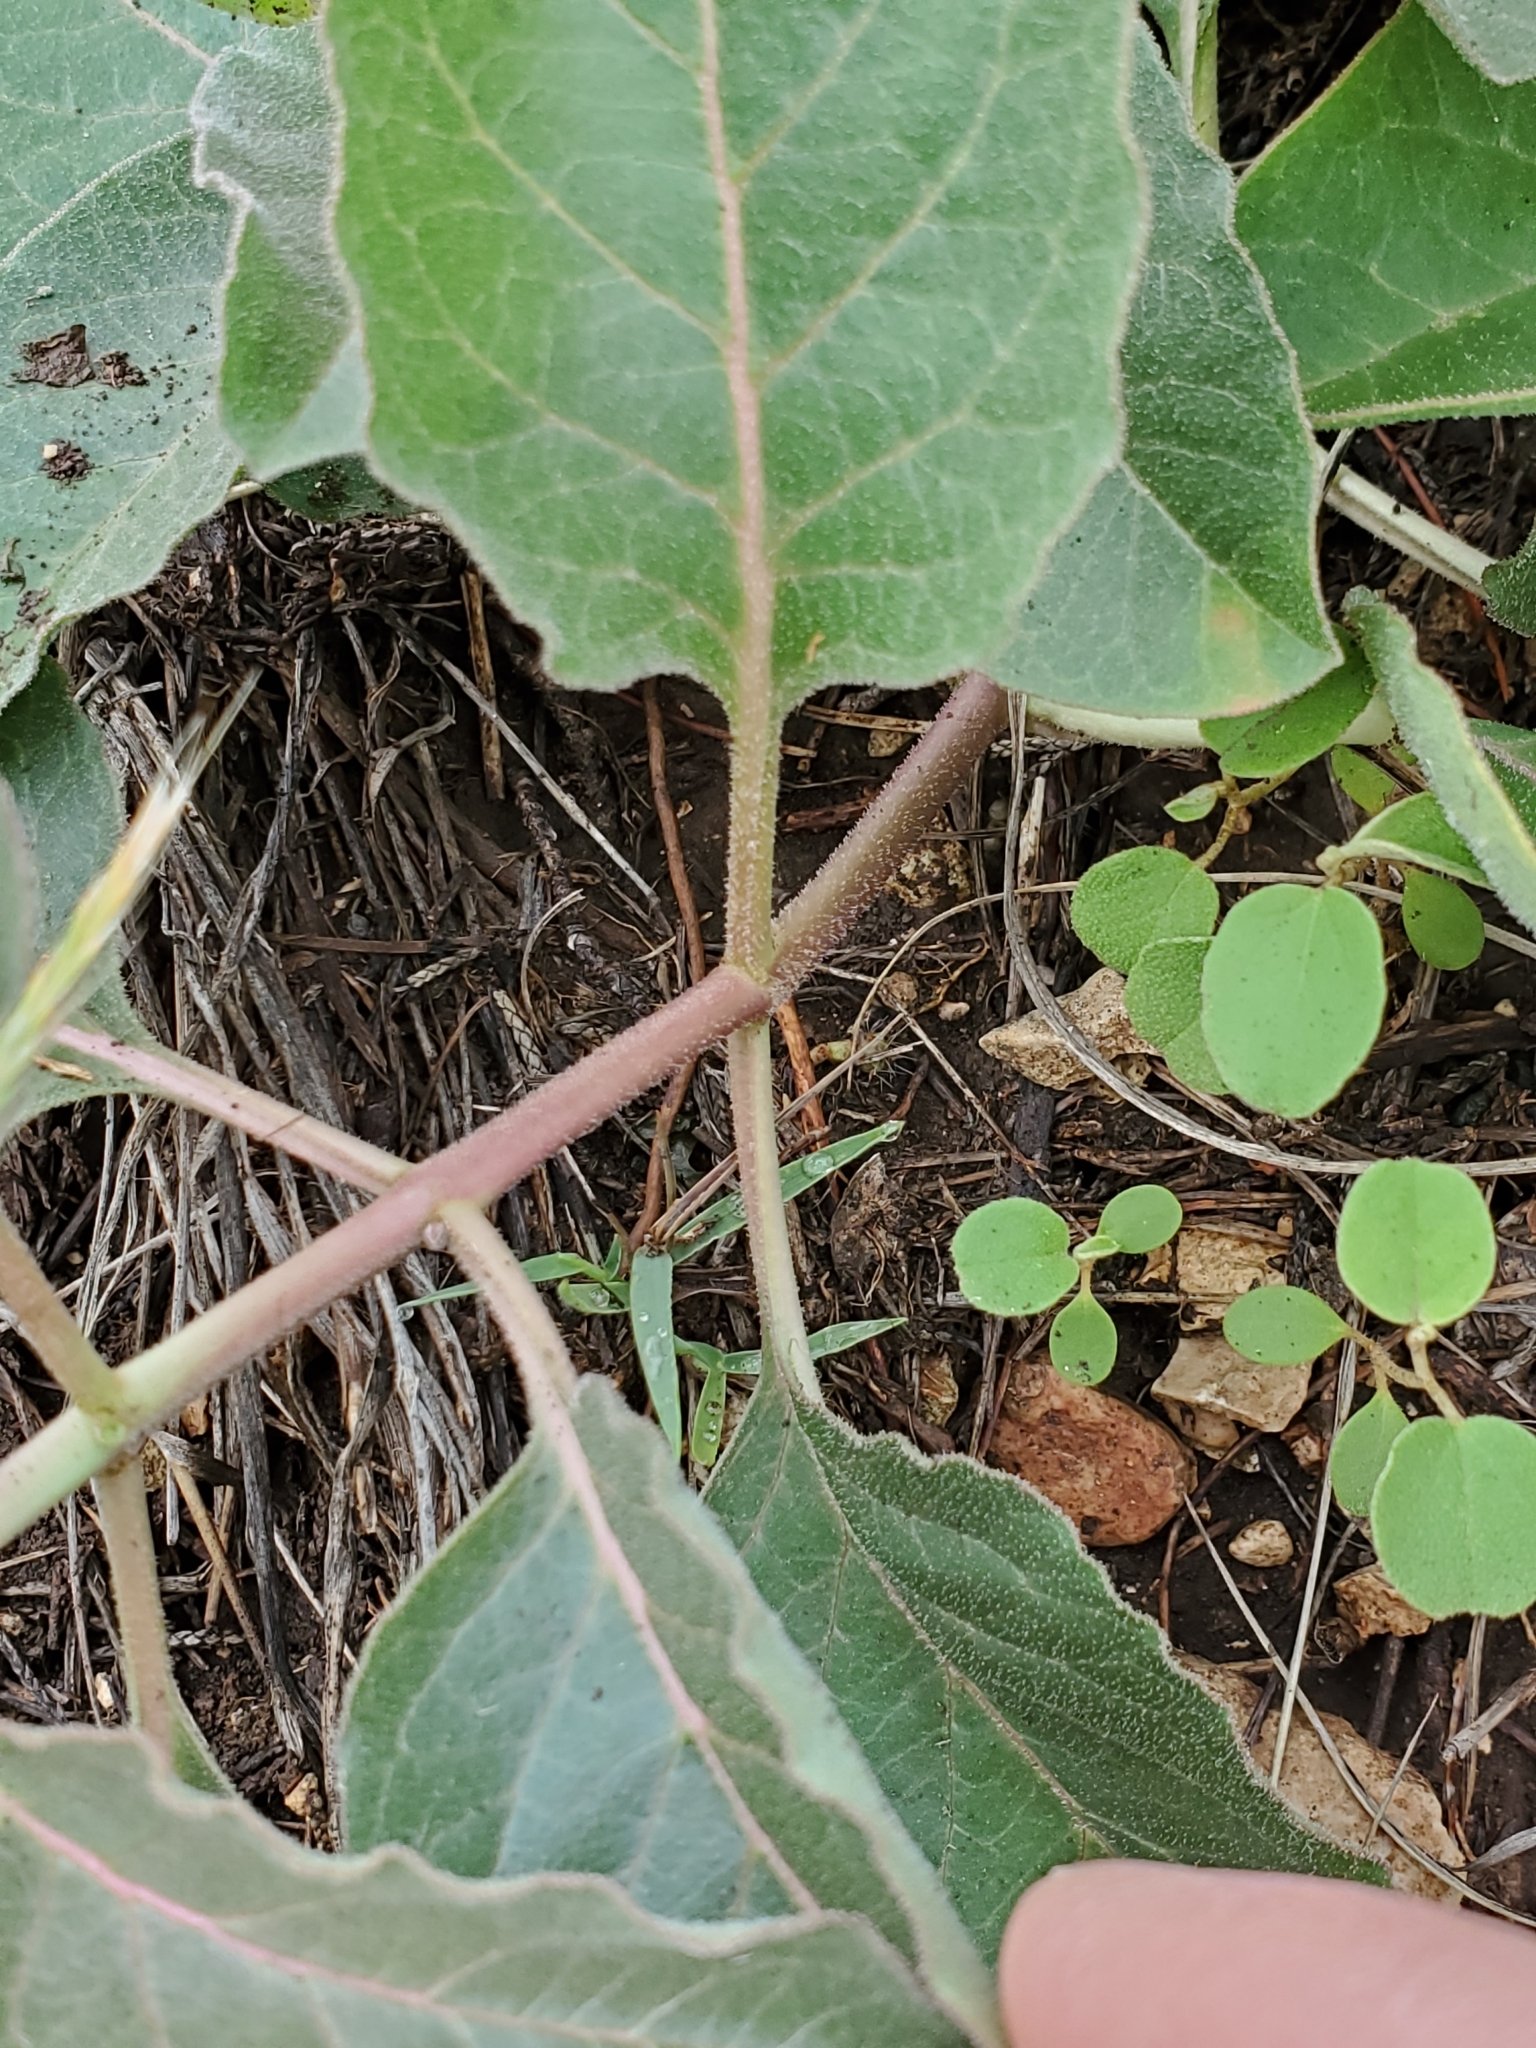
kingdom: Plantae
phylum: Tracheophyta
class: Magnoliopsida
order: Gentianales
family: Apocynaceae
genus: Asclepias
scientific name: Asclepias oenotheroides
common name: Zizotes milkweed
